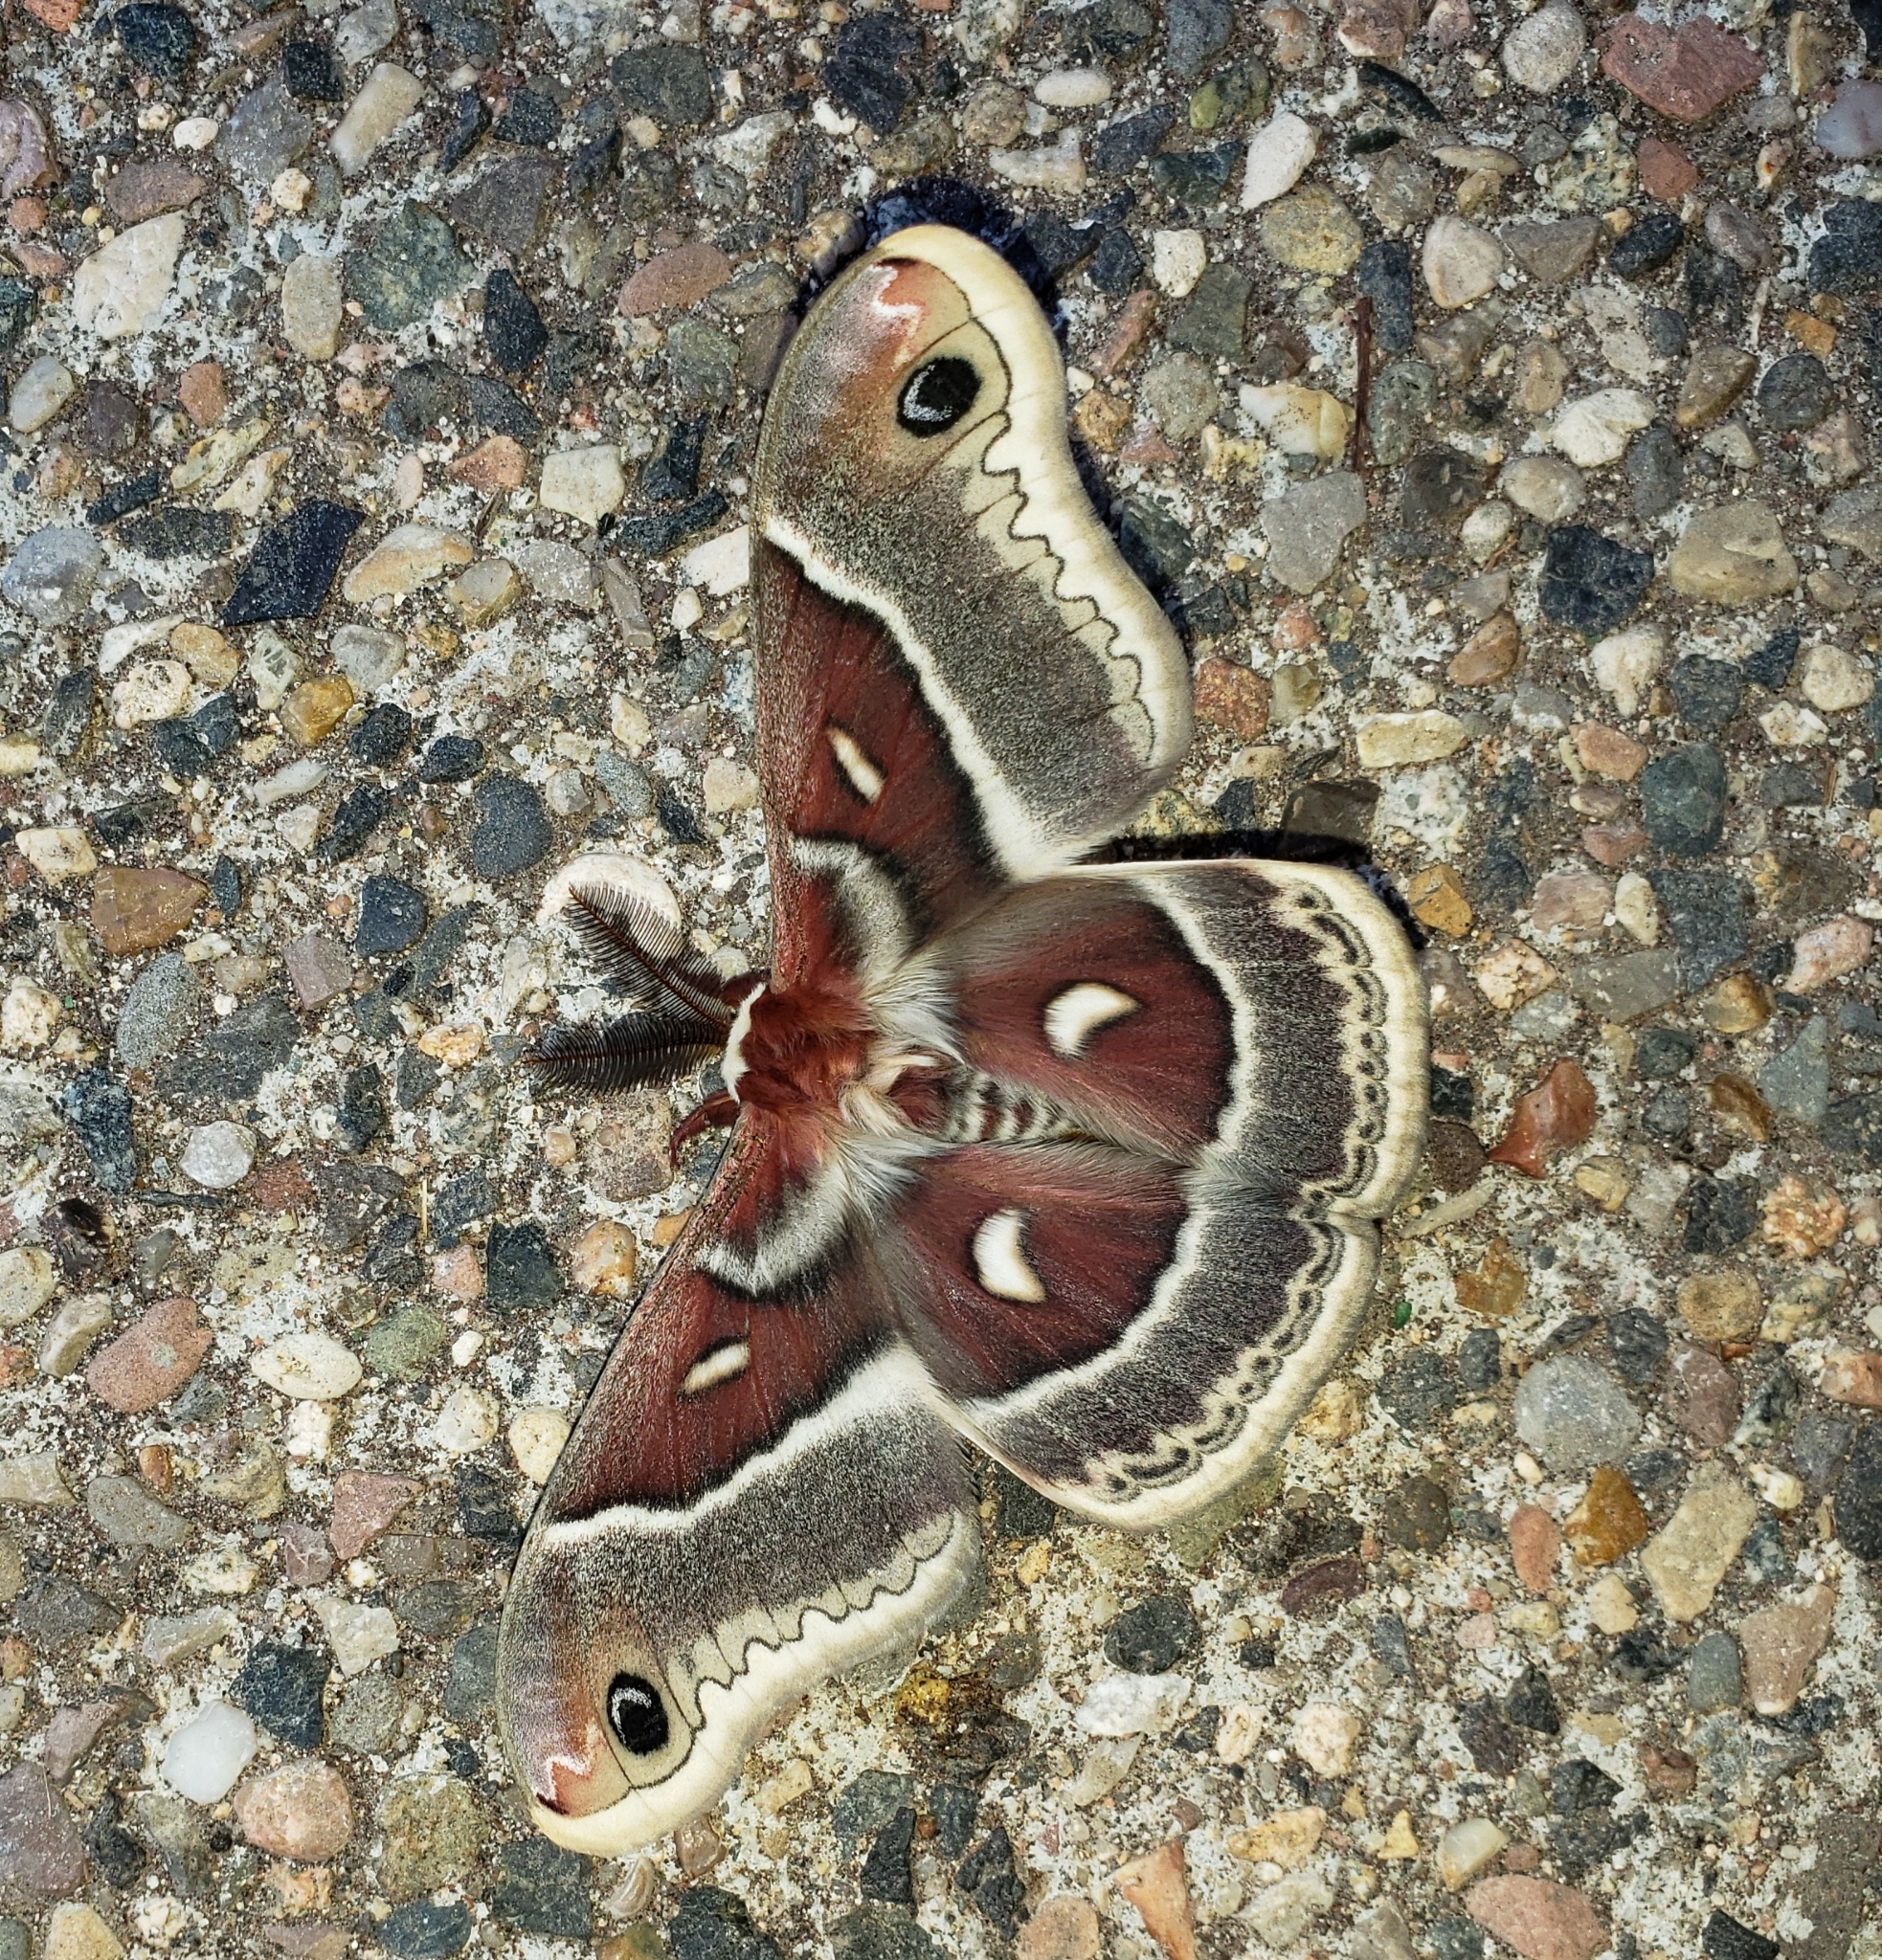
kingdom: Animalia
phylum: Arthropoda
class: Insecta
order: Lepidoptera
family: Saturniidae
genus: Hyalophora
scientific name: Hyalophora gloveri
